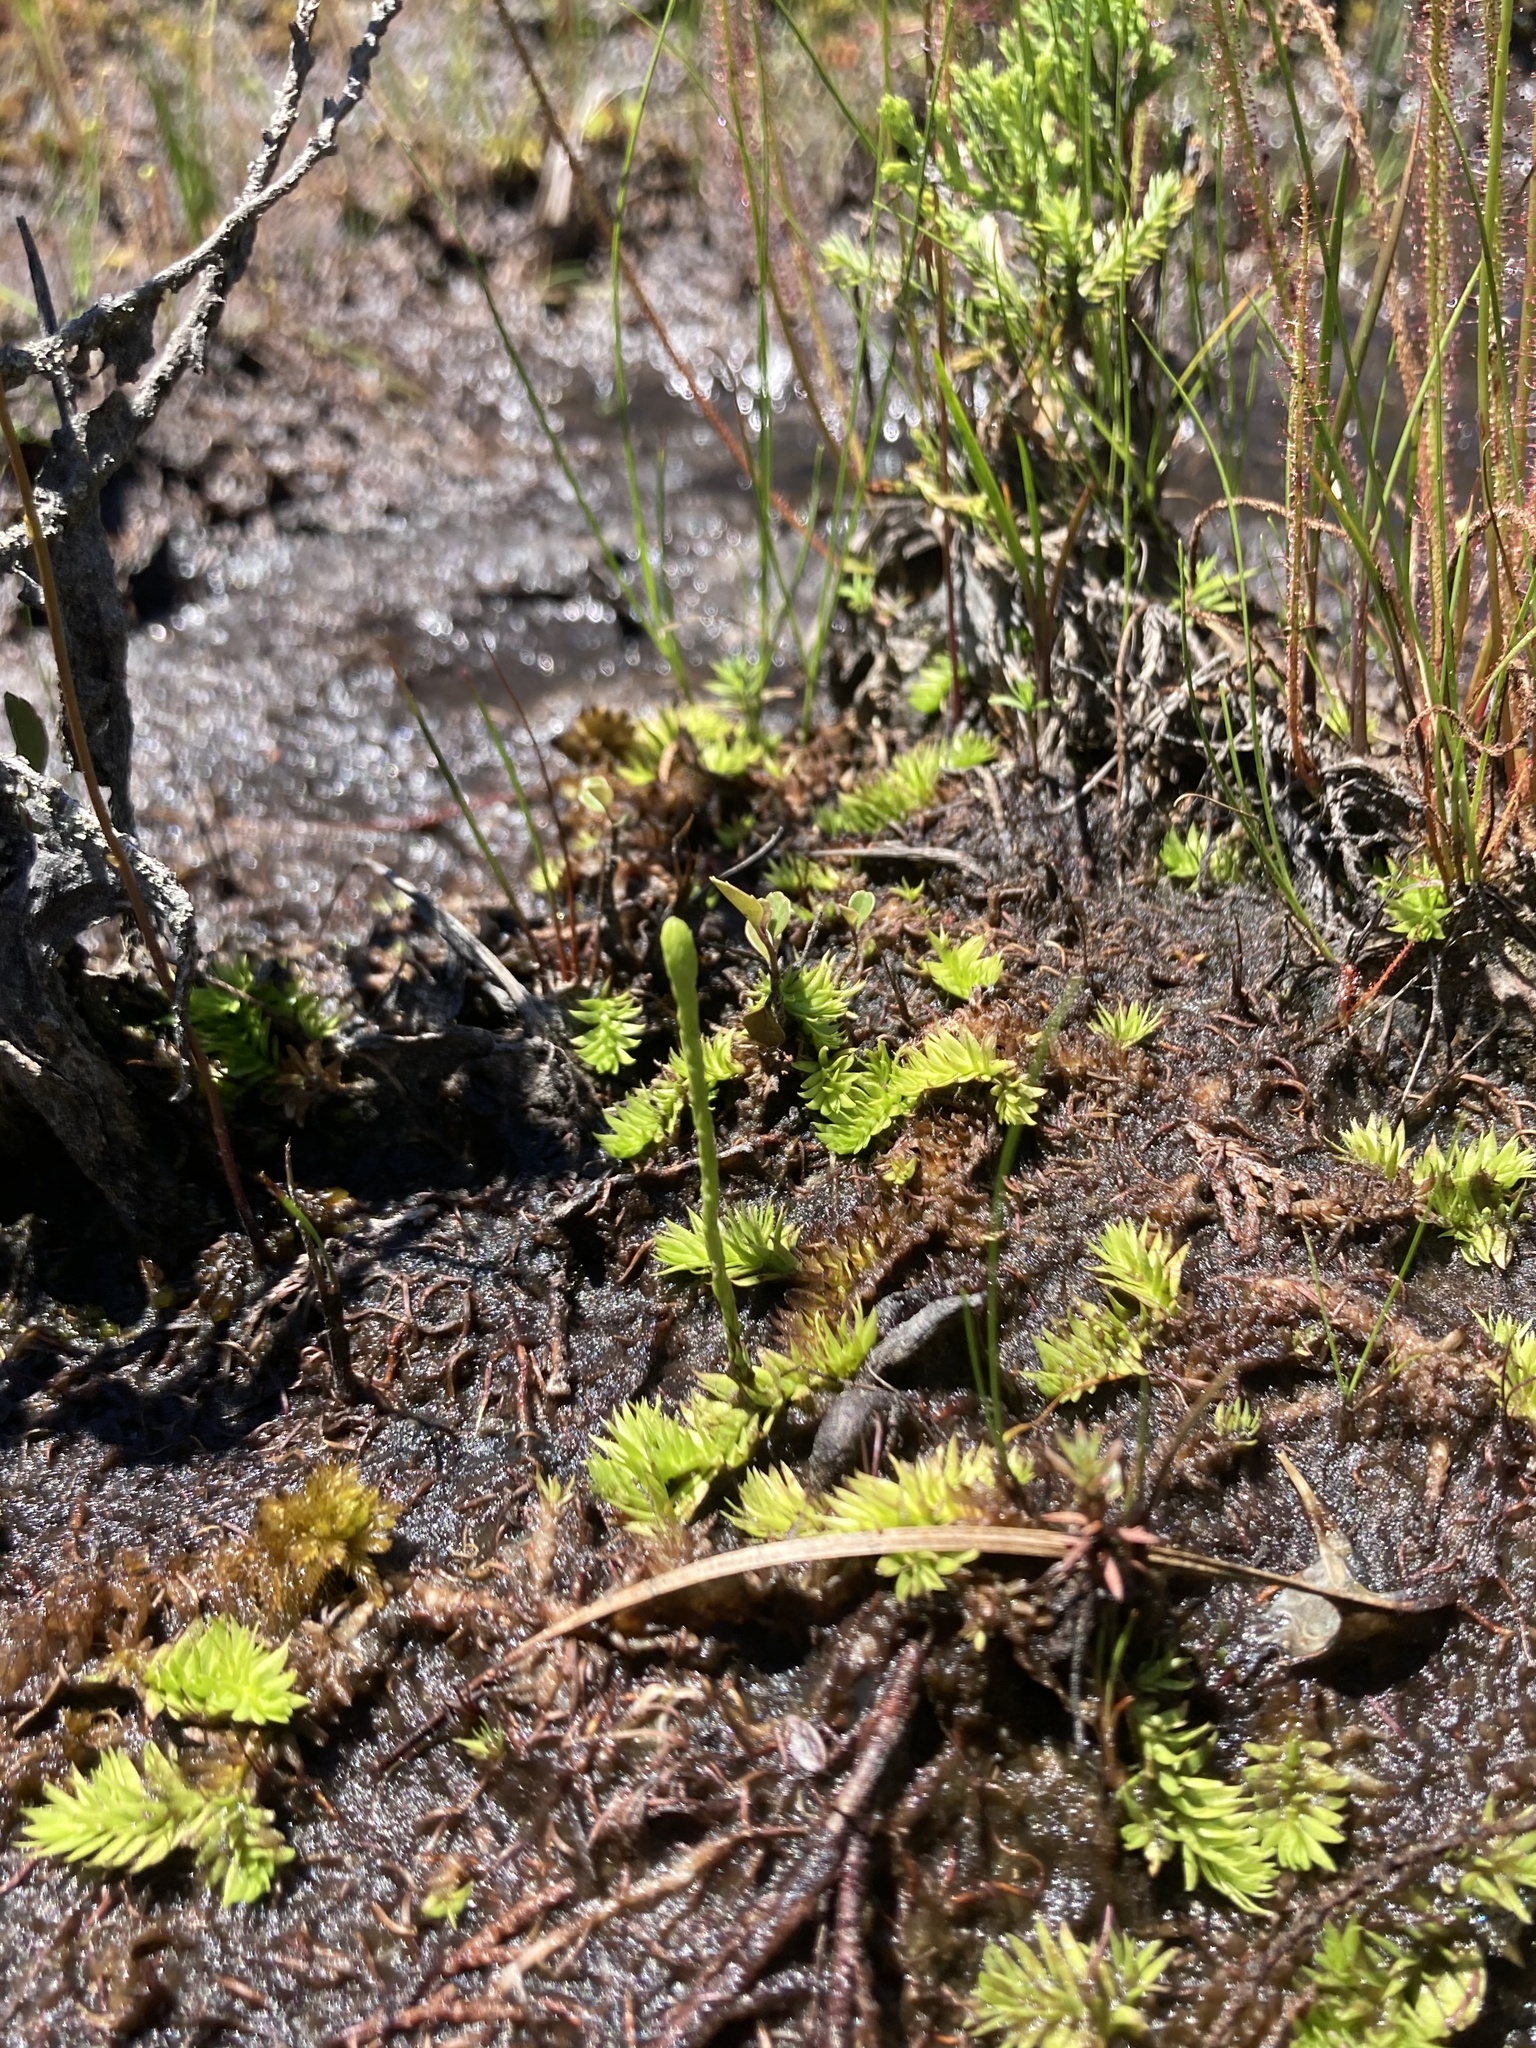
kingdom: Plantae
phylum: Tracheophyta
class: Lycopodiopsida
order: Lycopodiales
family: Lycopodiaceae
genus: Pseudolycopodiella
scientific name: Pseudolycopodiella caroliniana
